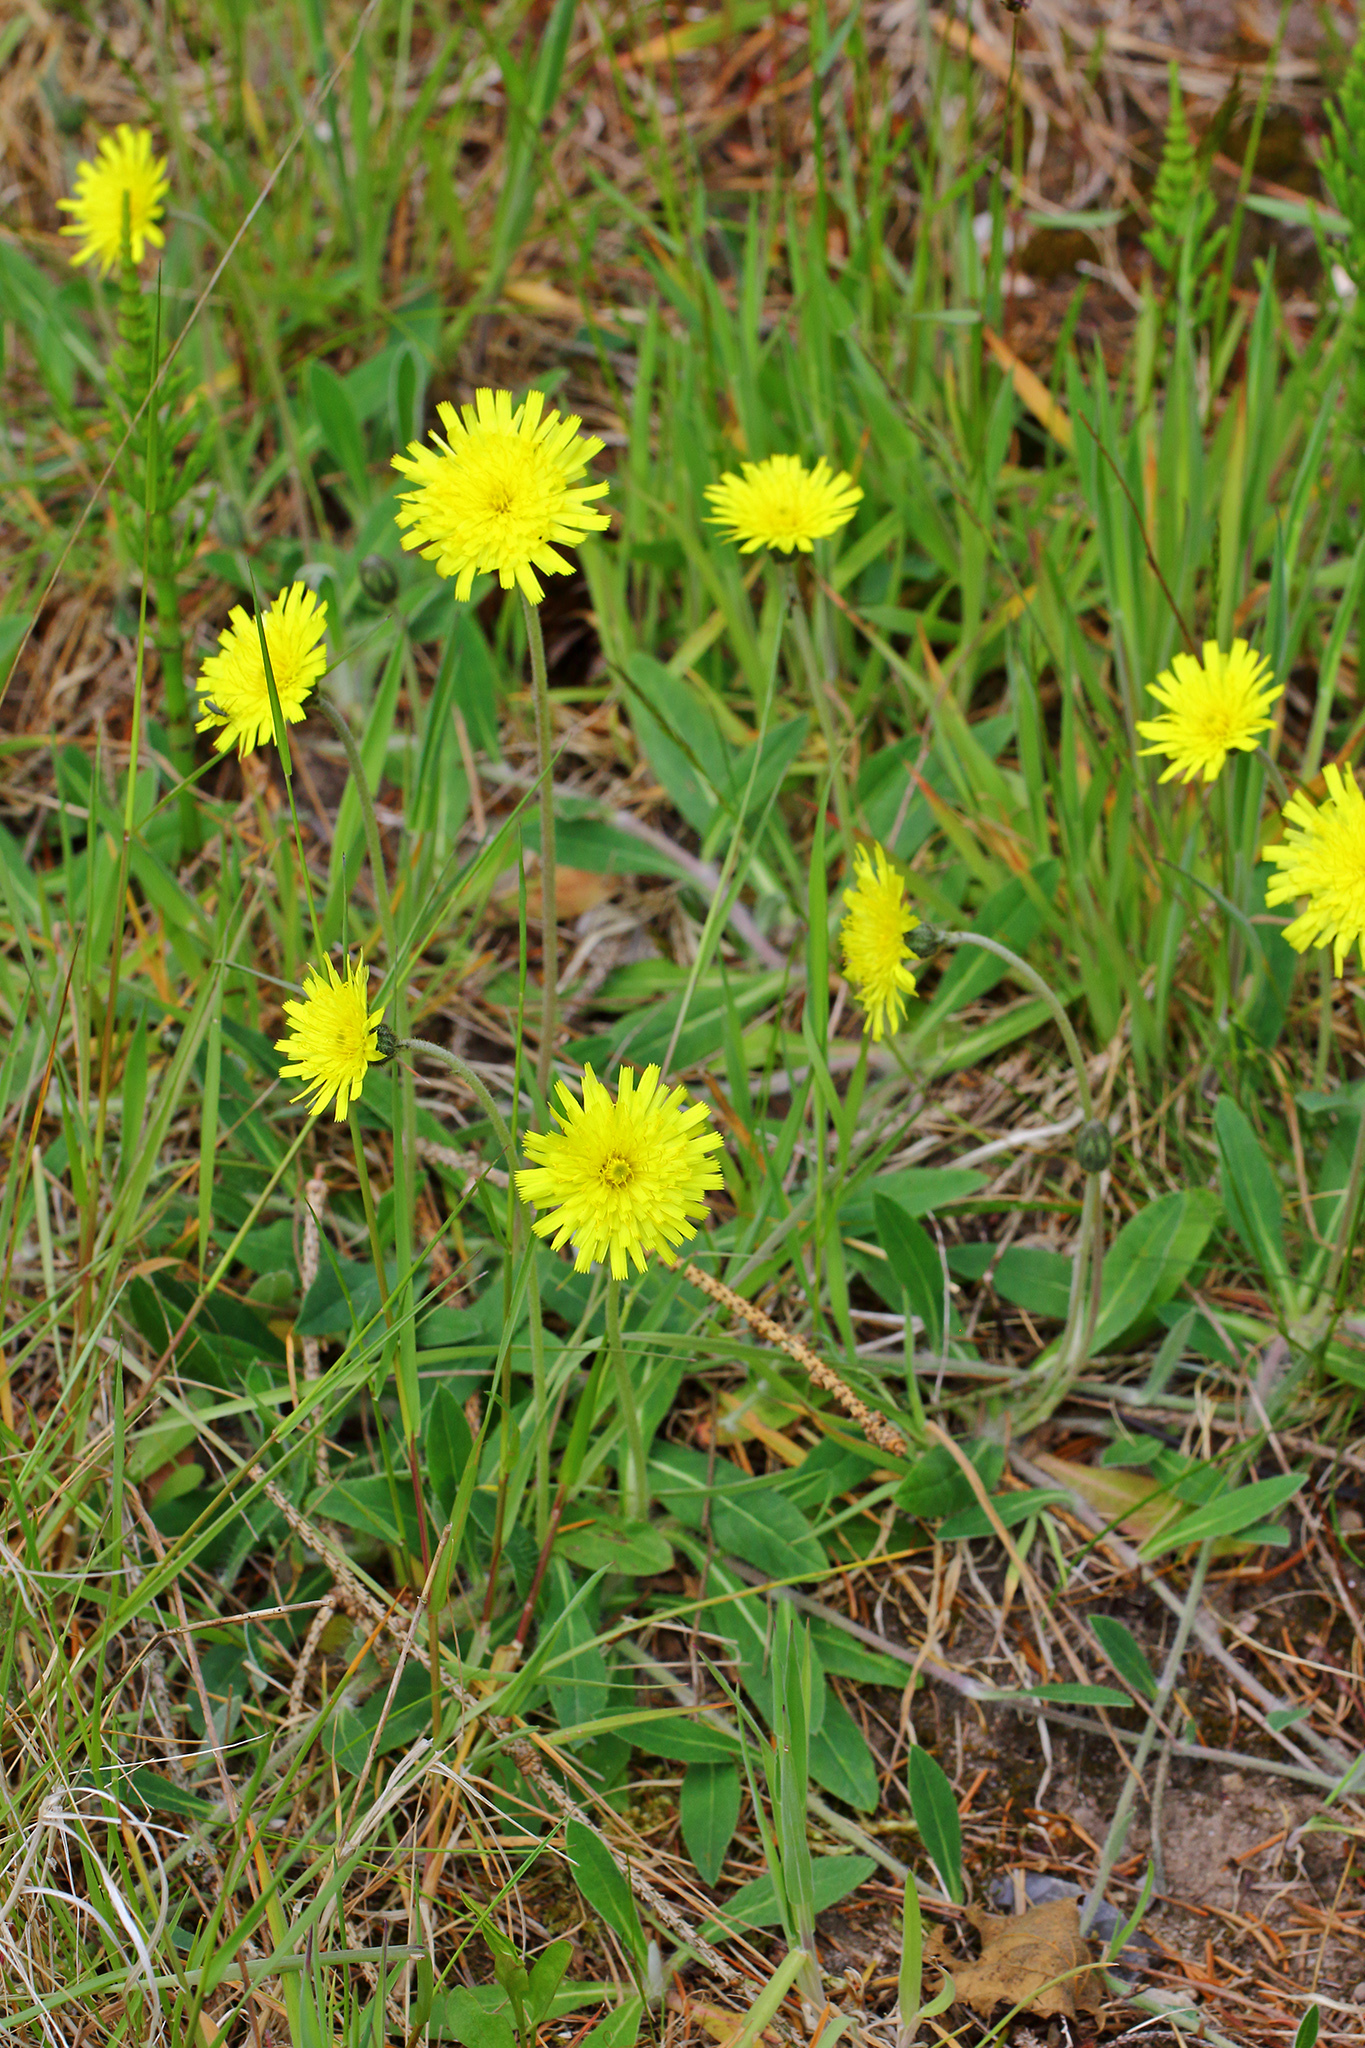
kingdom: Plantae
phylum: Tracheophyta
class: Magnoliopsida
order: Asterales
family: Asteraceae
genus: Pilosella
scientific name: Pilosella officinarum
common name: Mouse-ear hawkweed
